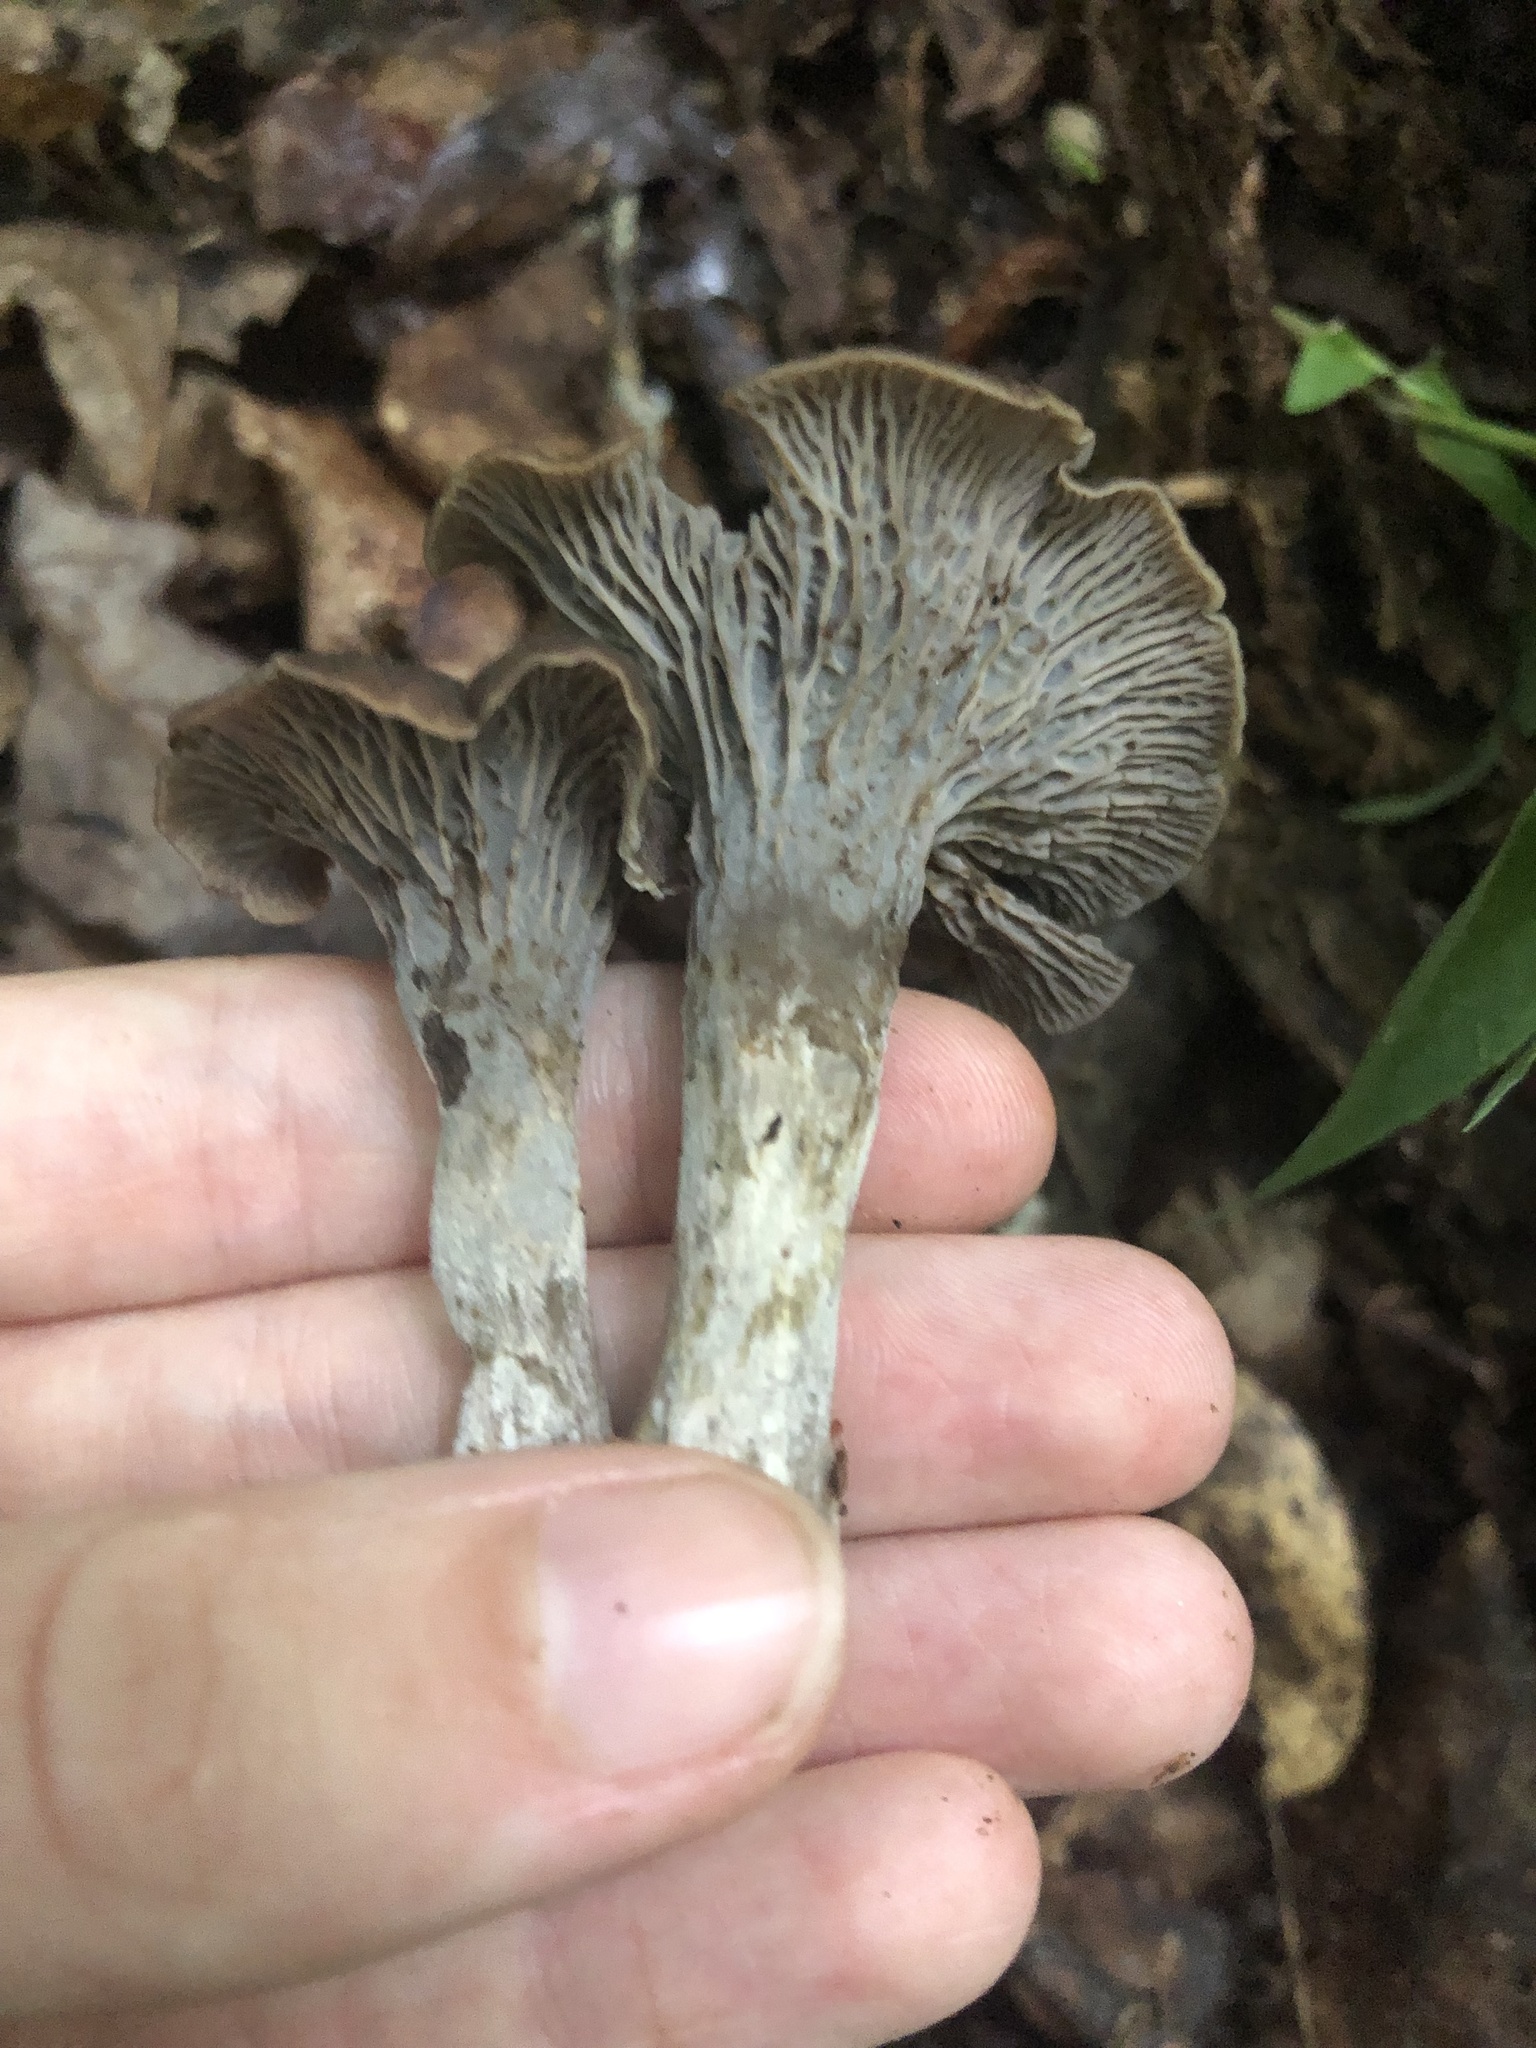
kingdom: Fungi
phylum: Basidiomycota
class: Agaricomycetes
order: Cantharellales
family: Hydnaceae
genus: Craterellus
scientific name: Craterellus foetidus
